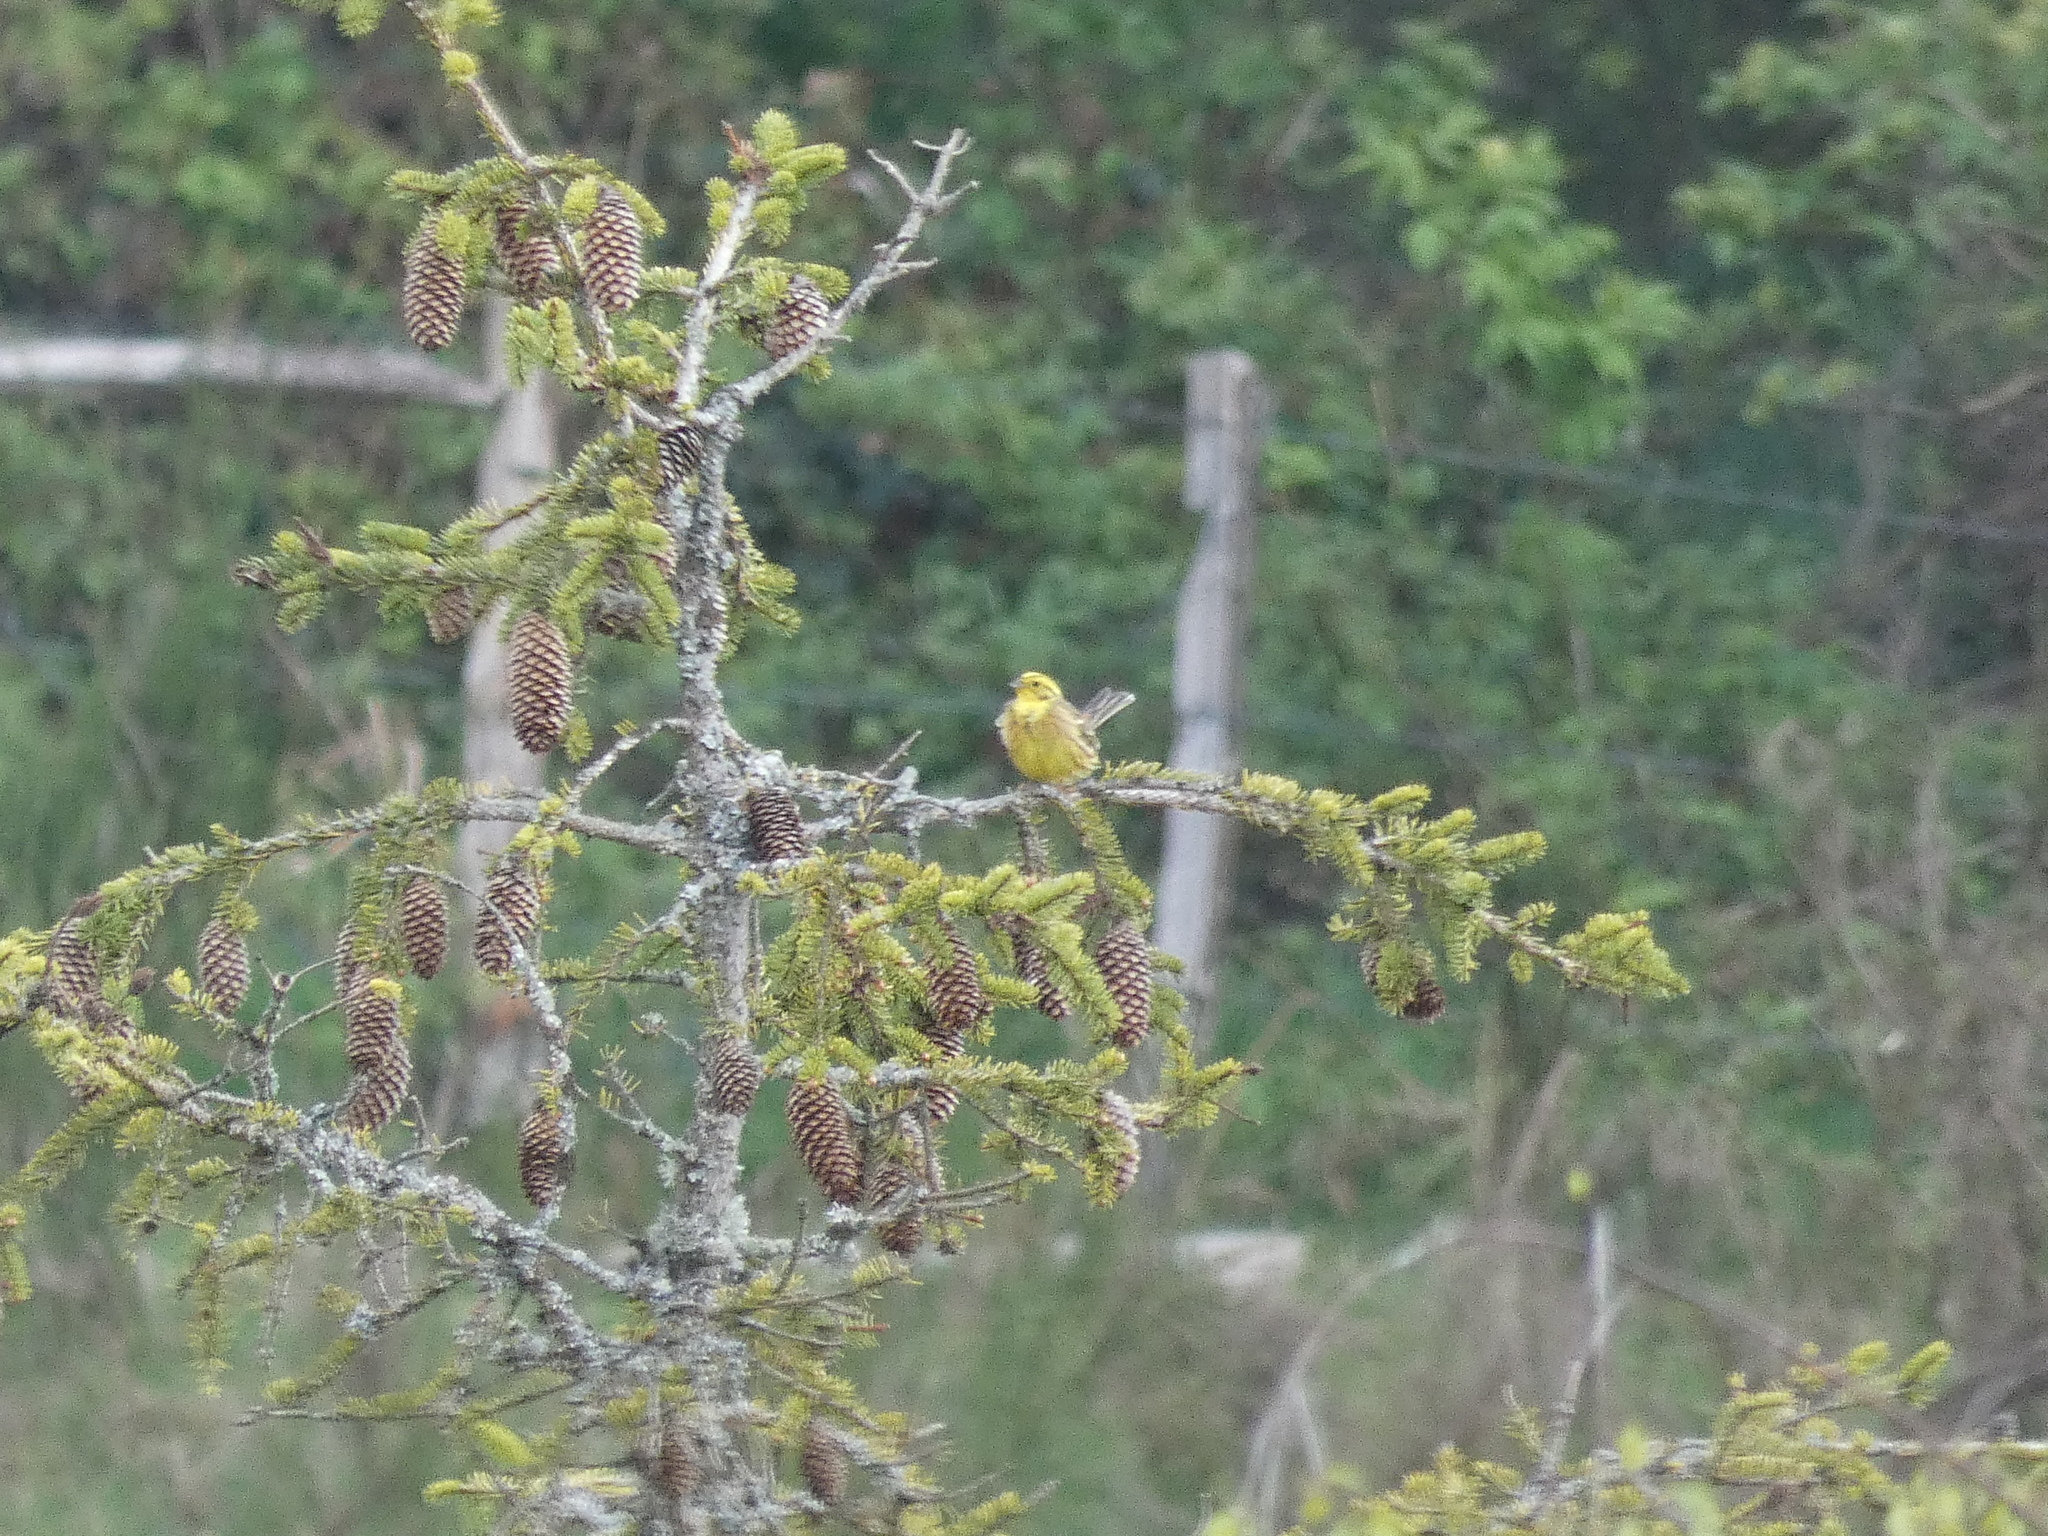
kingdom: Animalia
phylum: Chordata
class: Aves
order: Passeriformes
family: Emberizidae
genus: Emberiza
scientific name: Emberiza citrinella
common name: Yellowhammer
